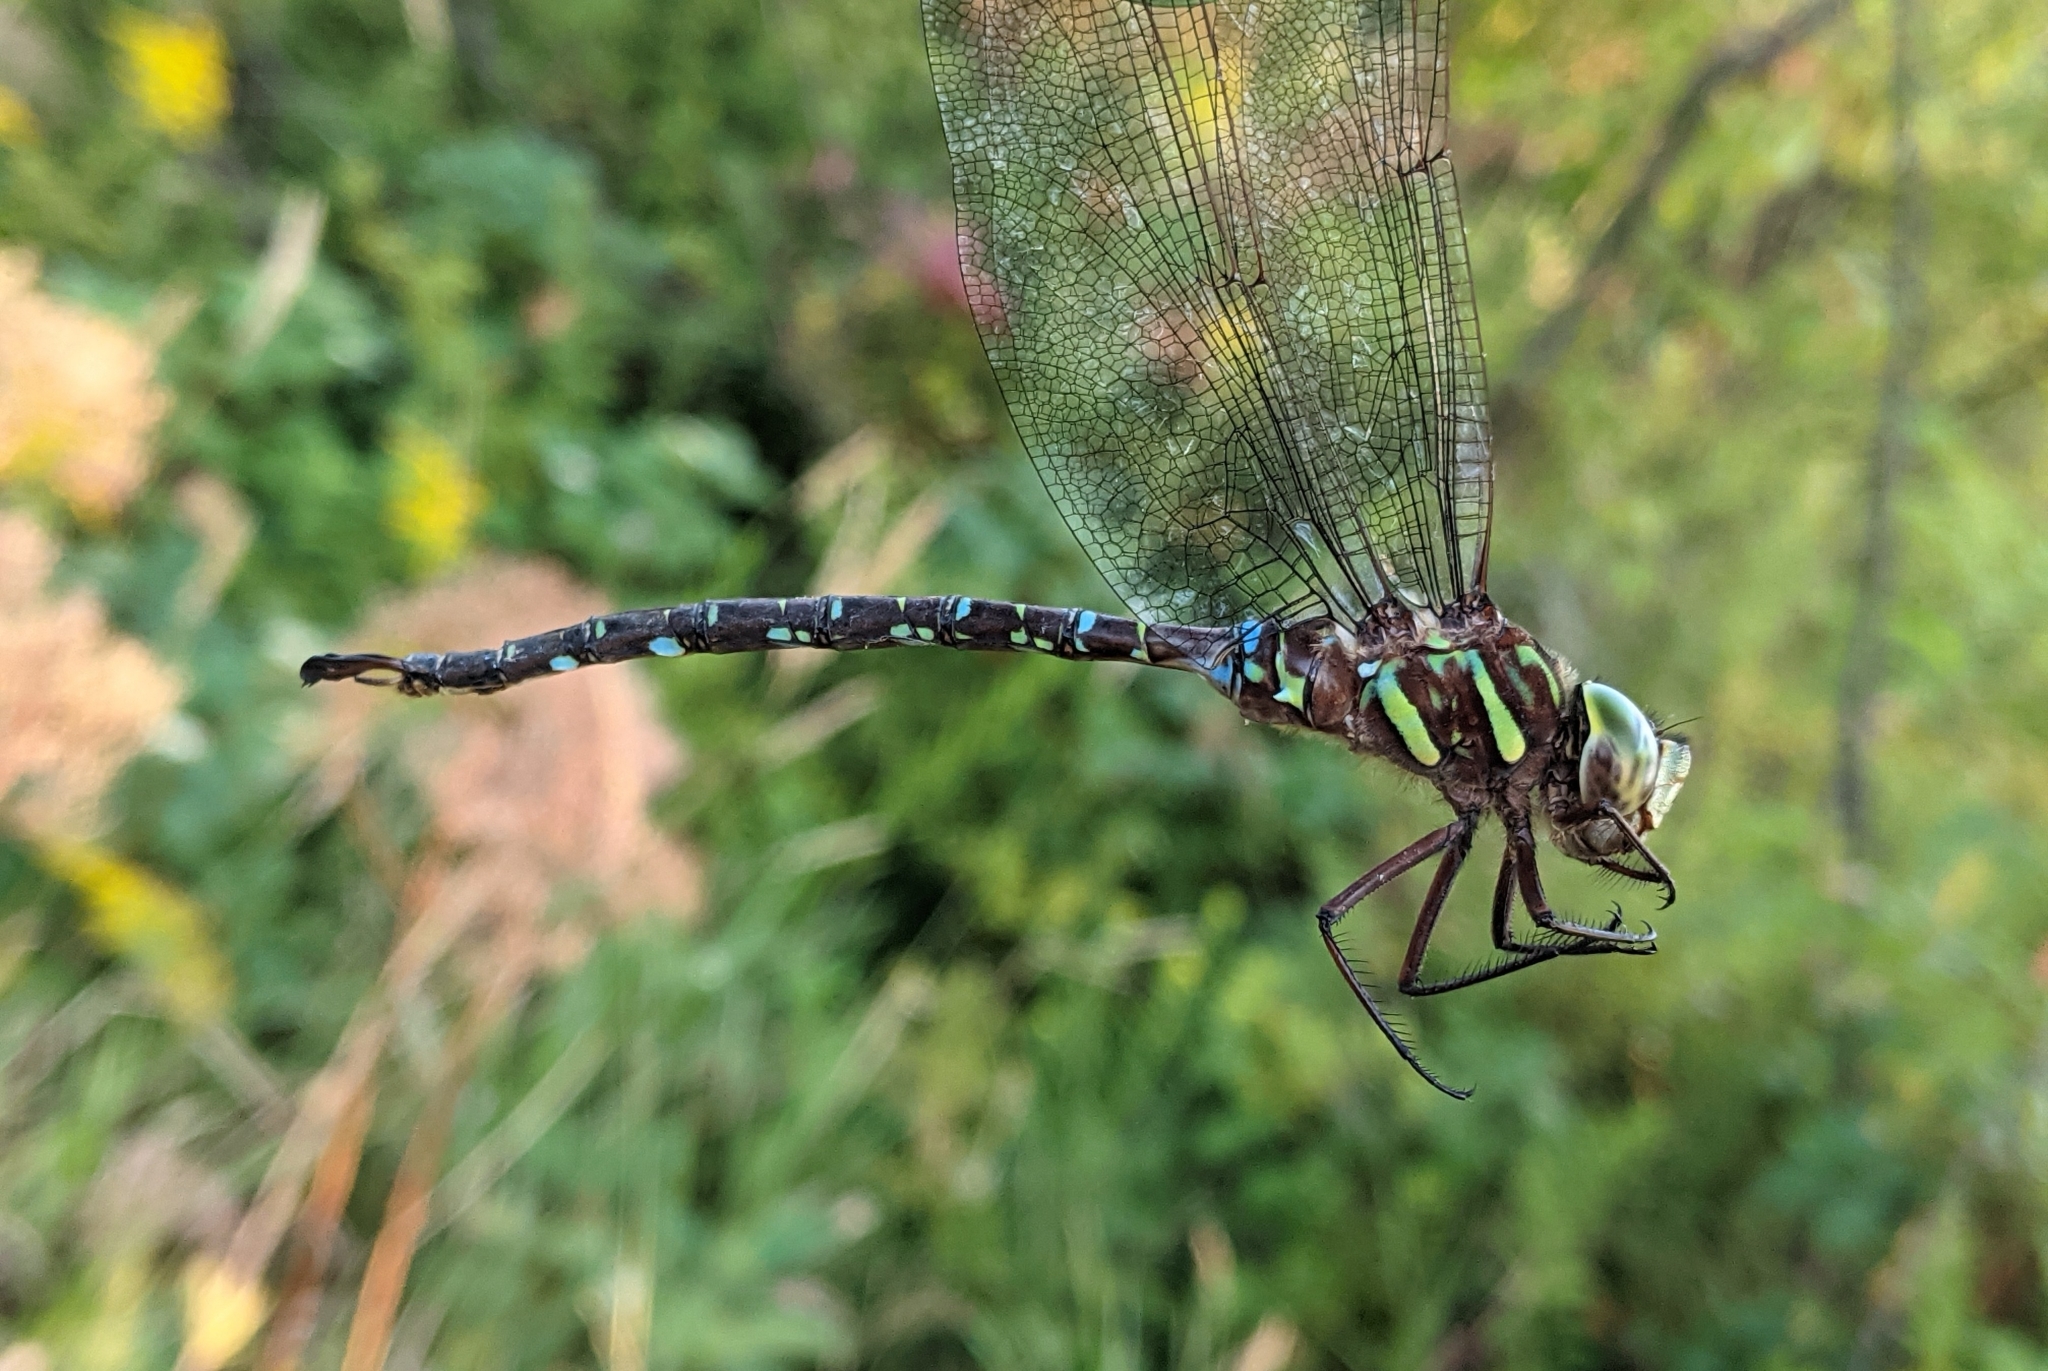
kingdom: Animalia
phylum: Arthropoda
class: Insecta
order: Odonata
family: Aeshnidae
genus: Aeshna
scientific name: Aeshna umbrosa
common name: Shadow darner
